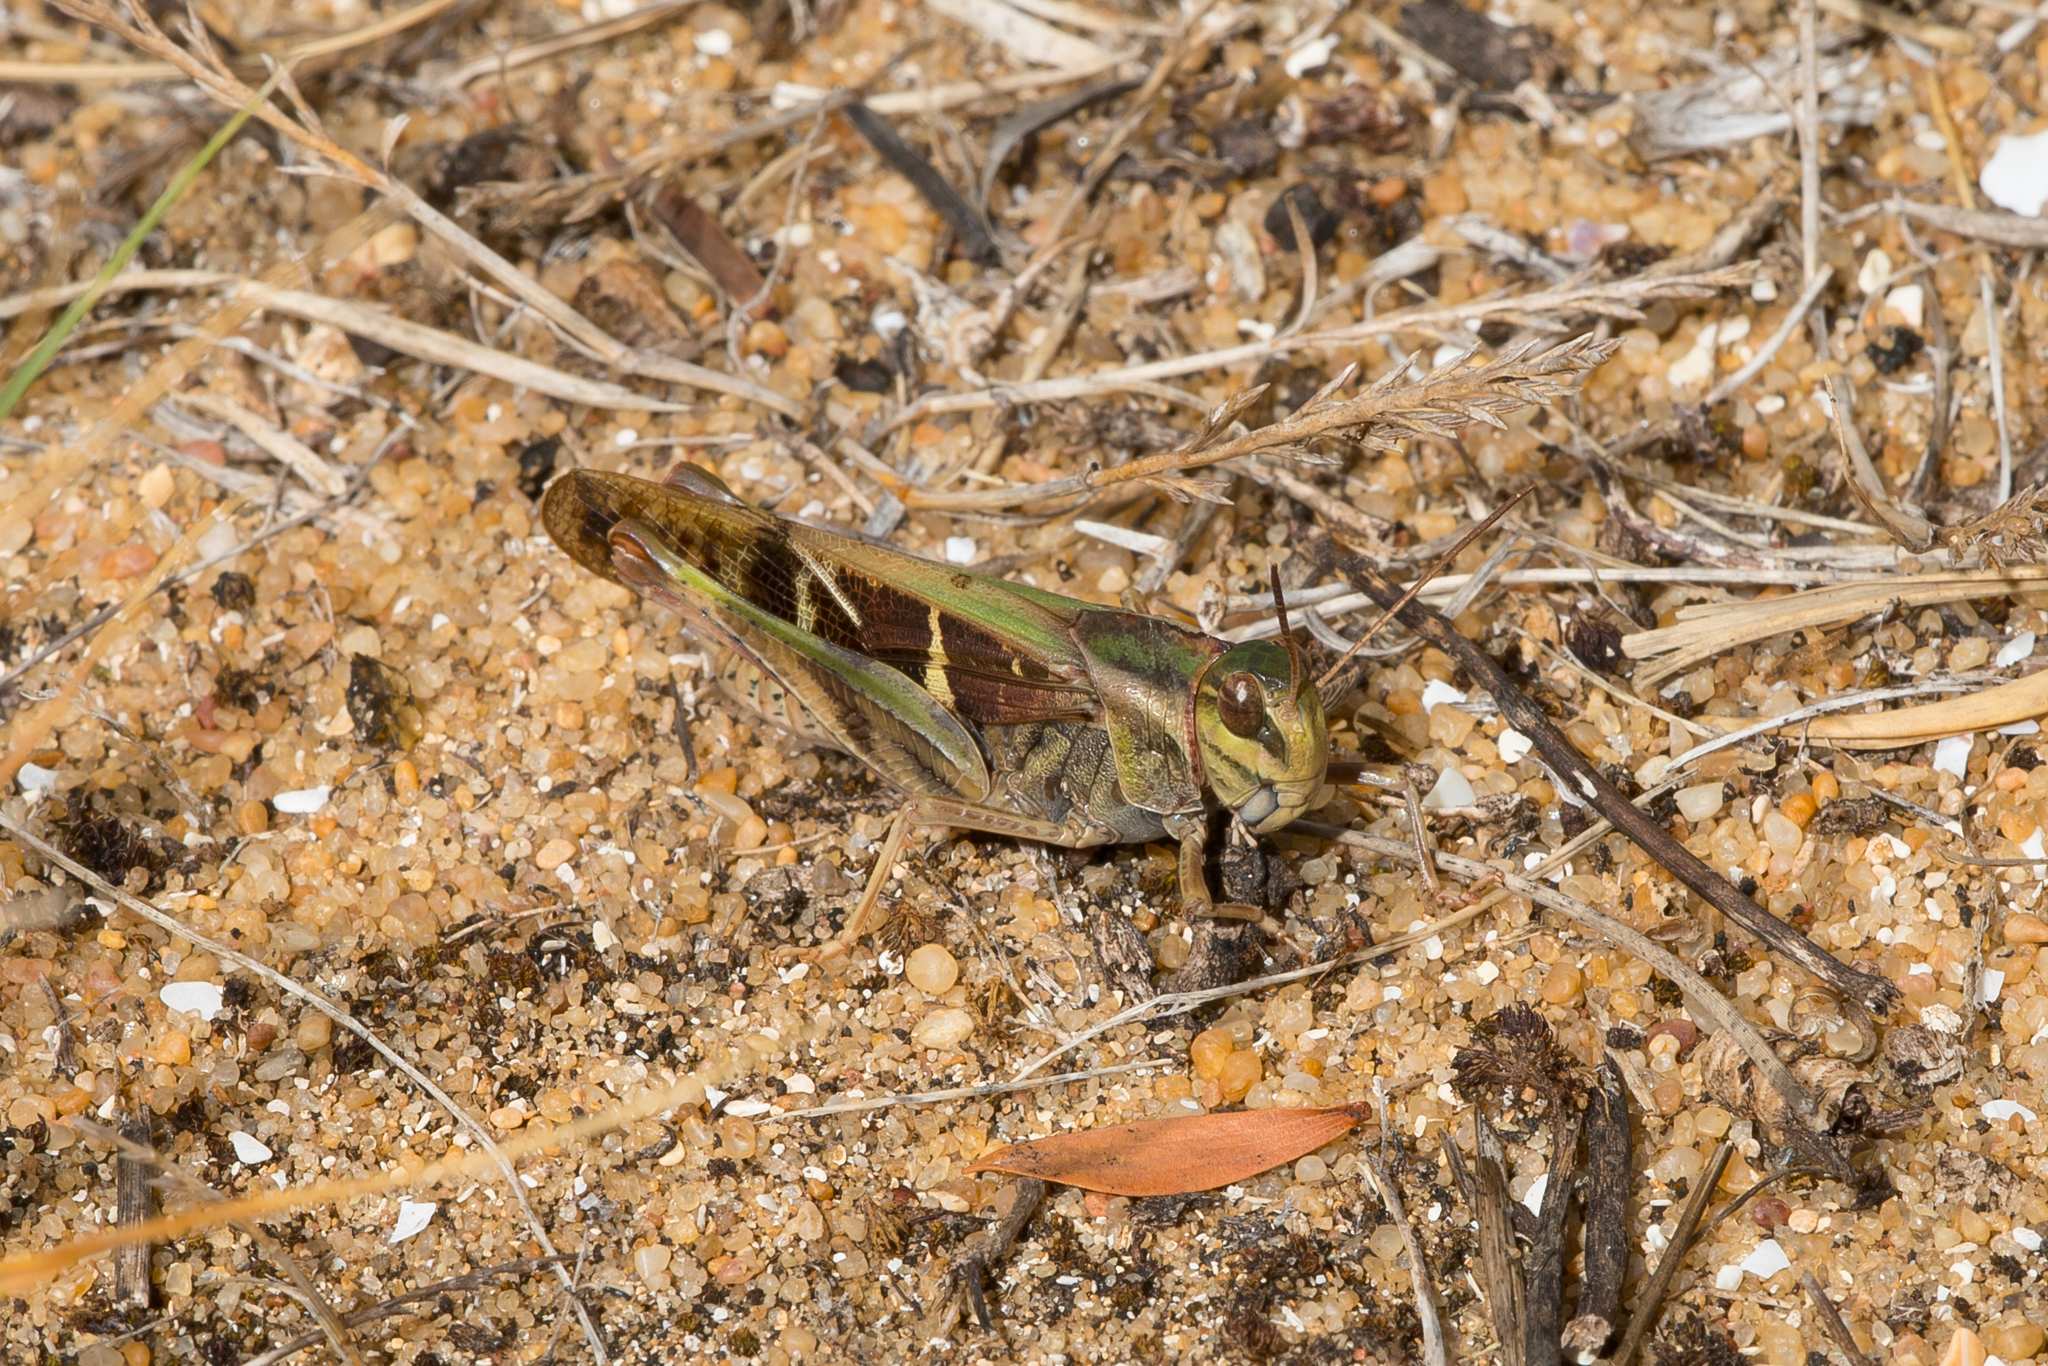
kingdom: Animalia
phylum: Arthropoda
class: Insecta
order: Orthoptera
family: Acrididae
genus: Gastrimargus
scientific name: Gastrimargus musicus
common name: Yellow-winged locust
